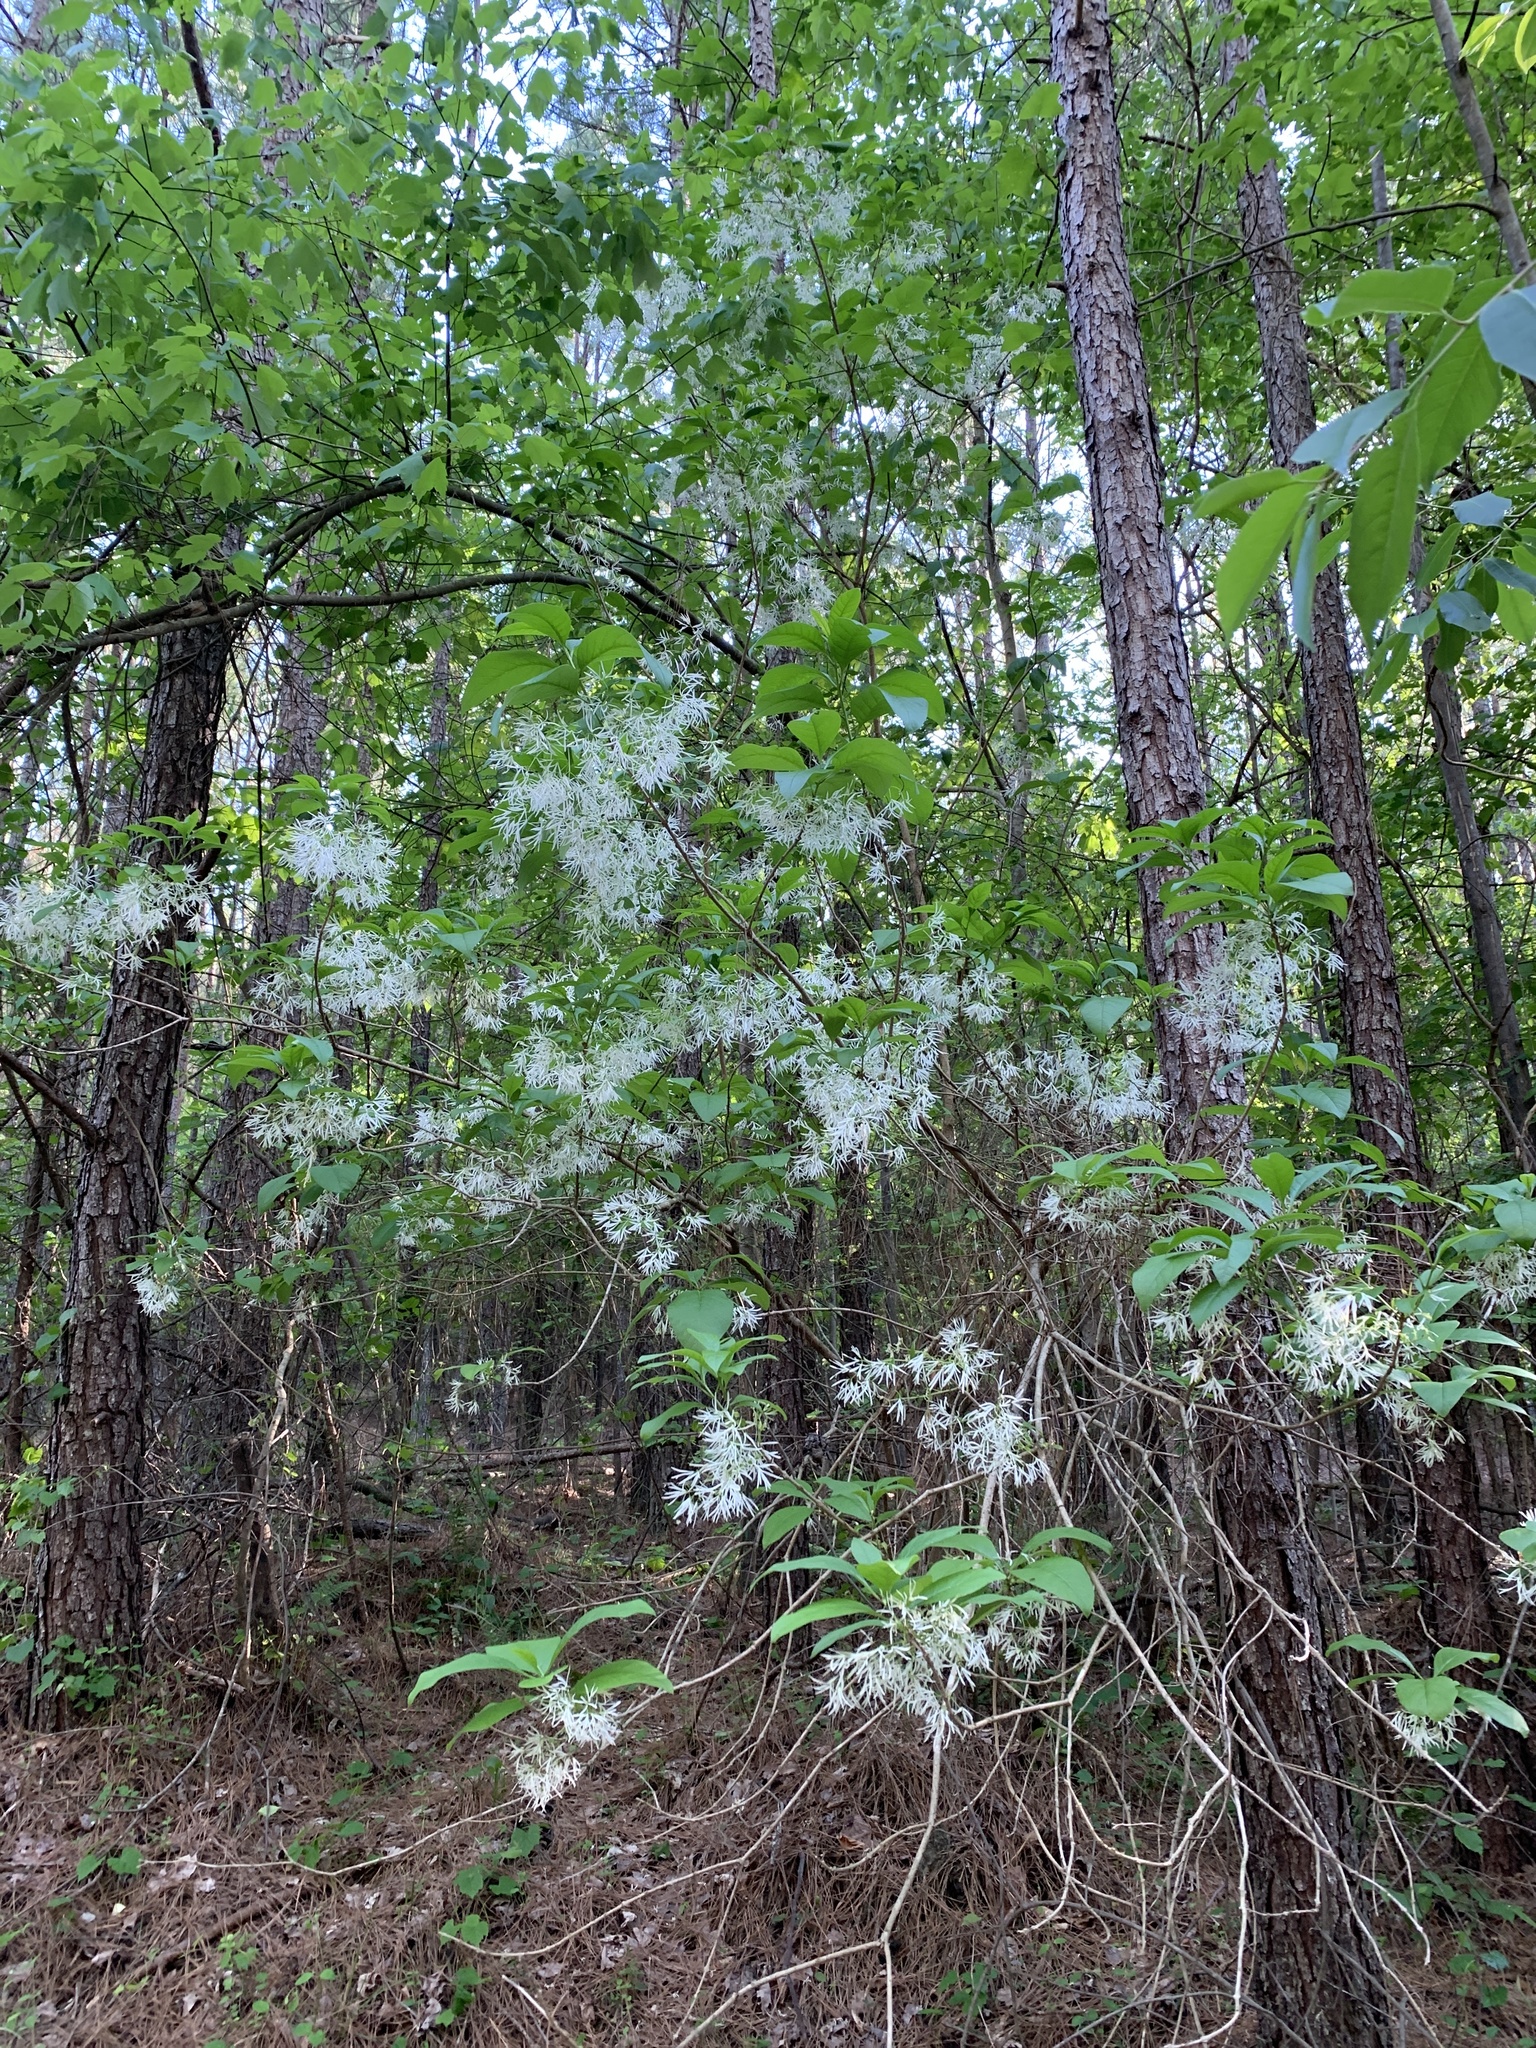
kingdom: Plantae
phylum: Tracheophyta
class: Magnoliopsida
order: Lamiales
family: Oleaceae
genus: Chionanthus
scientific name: Chionanthus virginicus
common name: American fringetree
